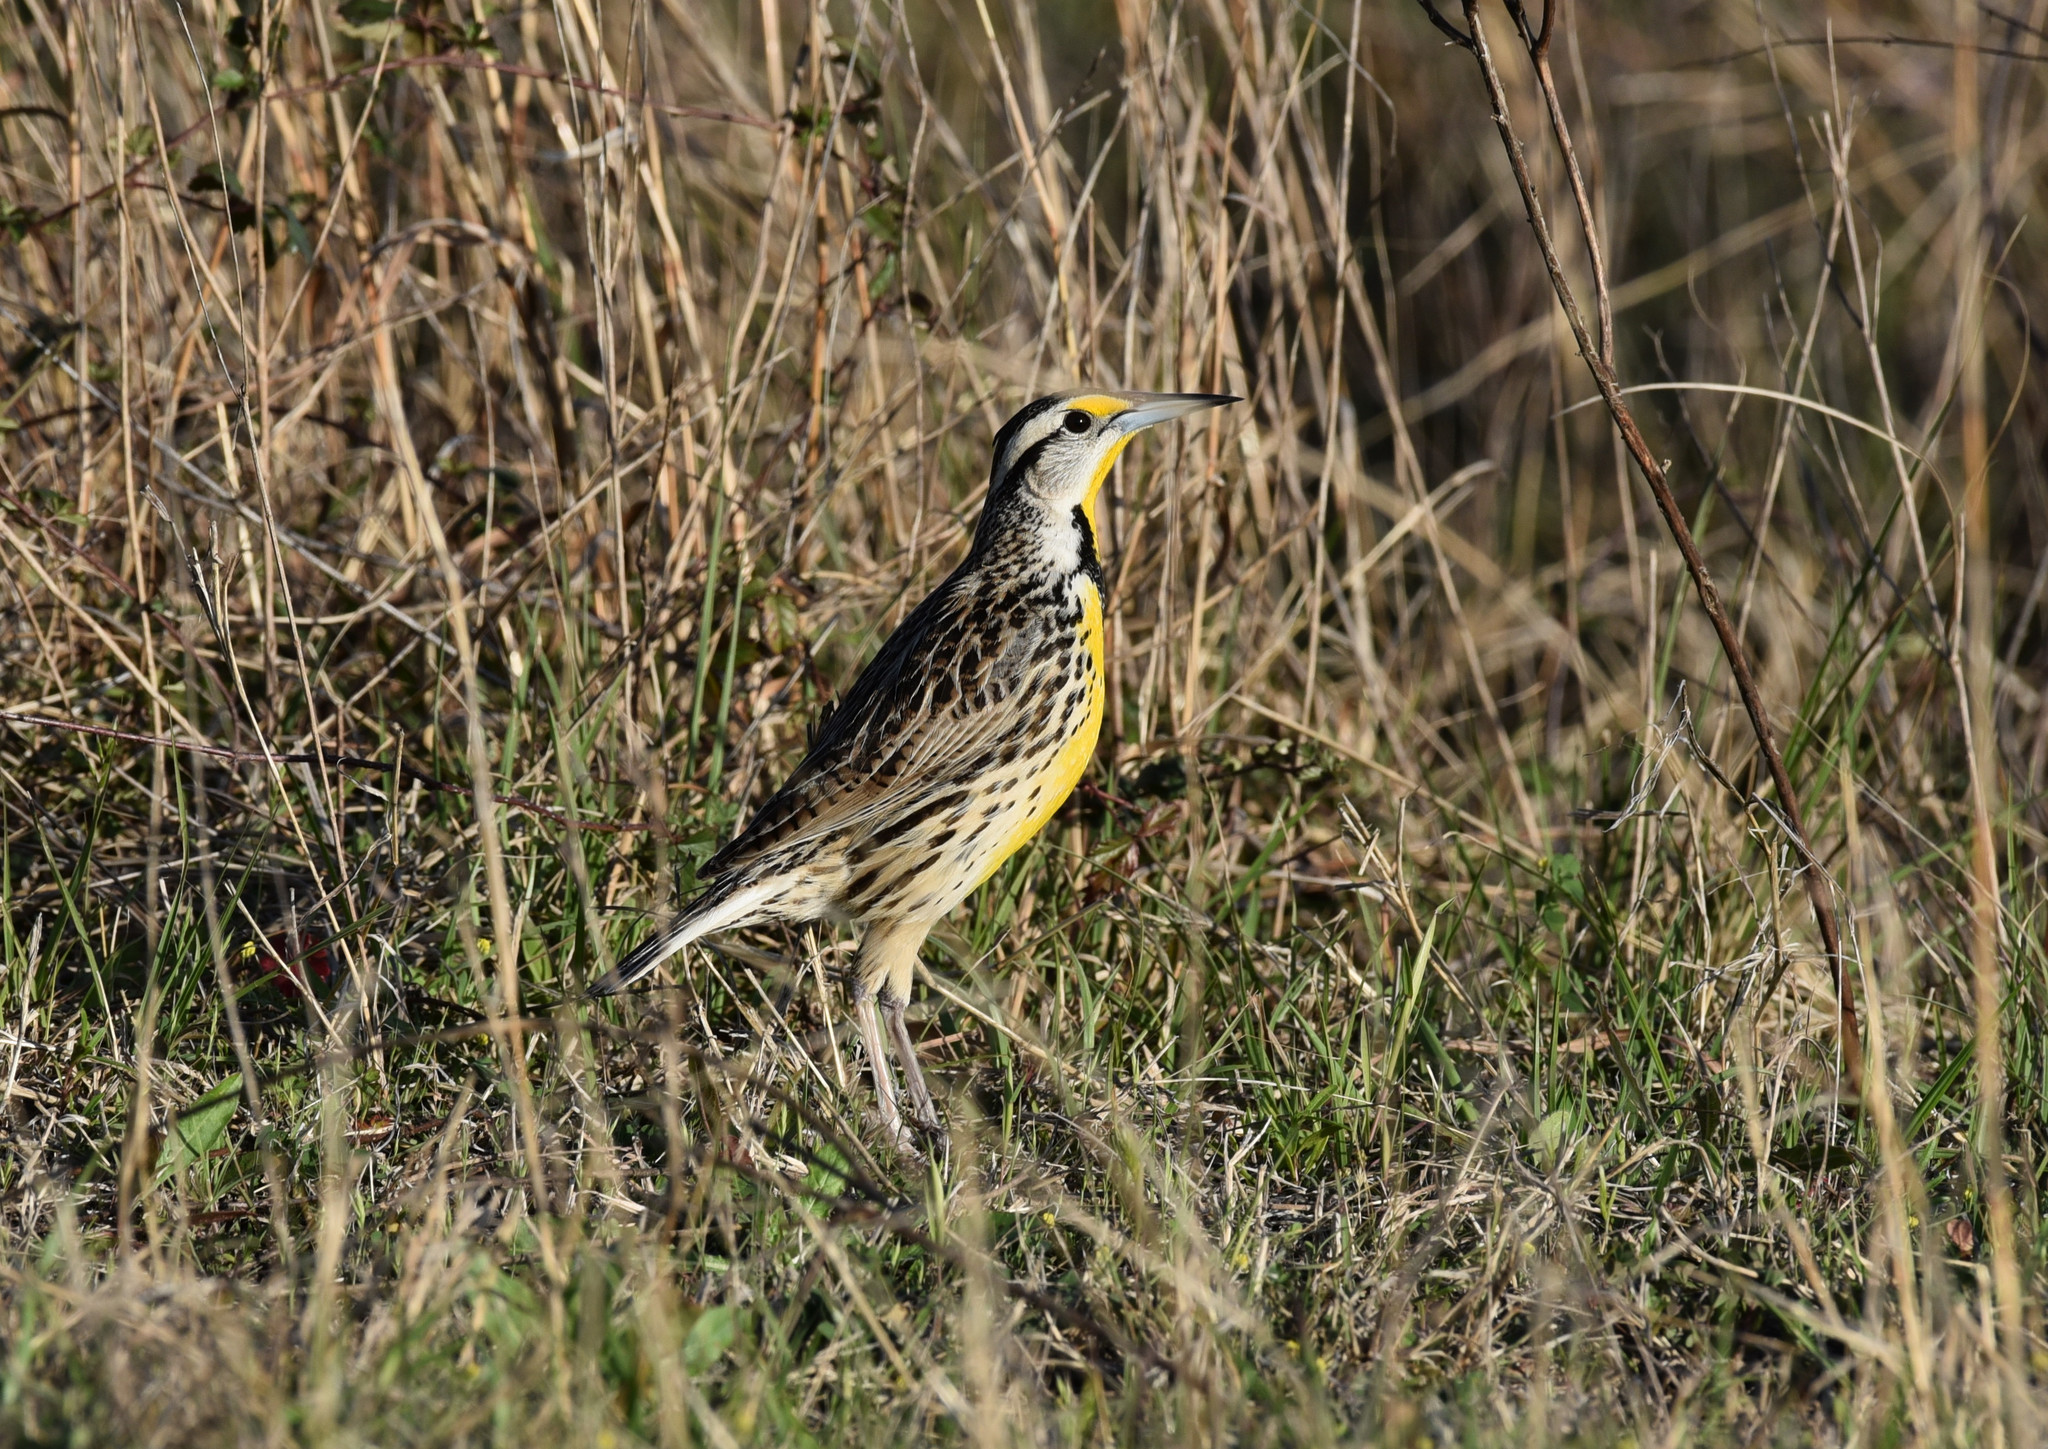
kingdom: Animalia
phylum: Chordata
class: Aves
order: Passeriformes
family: Icteridae
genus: Sturnella
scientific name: Sturnella magna
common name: Eastern meadowlark
